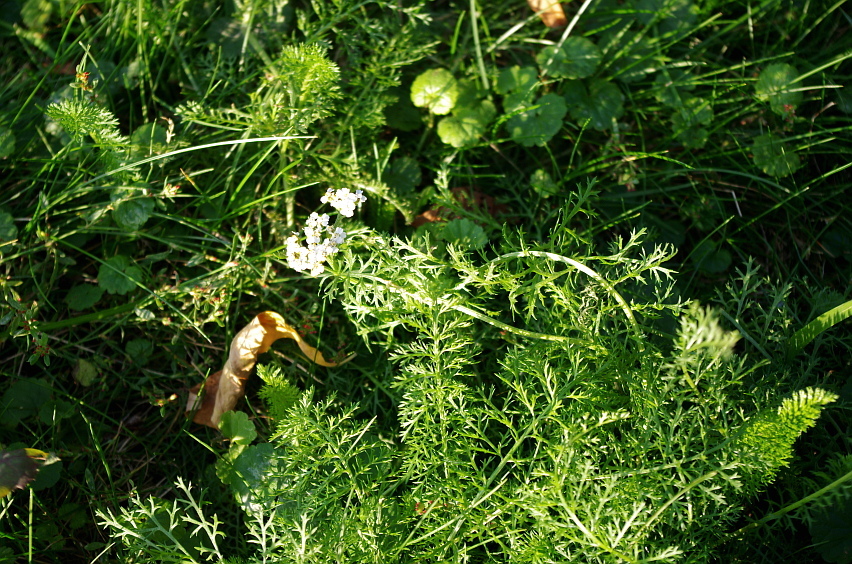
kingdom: Plantae
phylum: Tracheophyta
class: Magnoliopsida
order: Asterales
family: Asteraceae
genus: Achillea
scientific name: Achillea millefolium
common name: Yarrow
